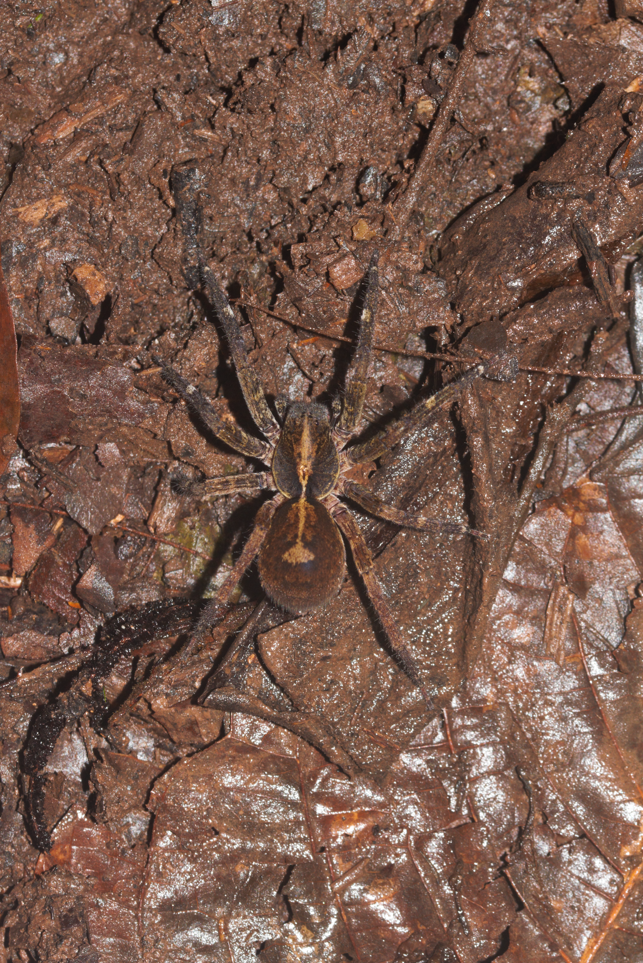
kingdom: Animalia
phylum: Arthropoda
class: Arachnida
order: Araneae
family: Ctenidae
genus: Ctenus
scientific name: Ctenus amphora
